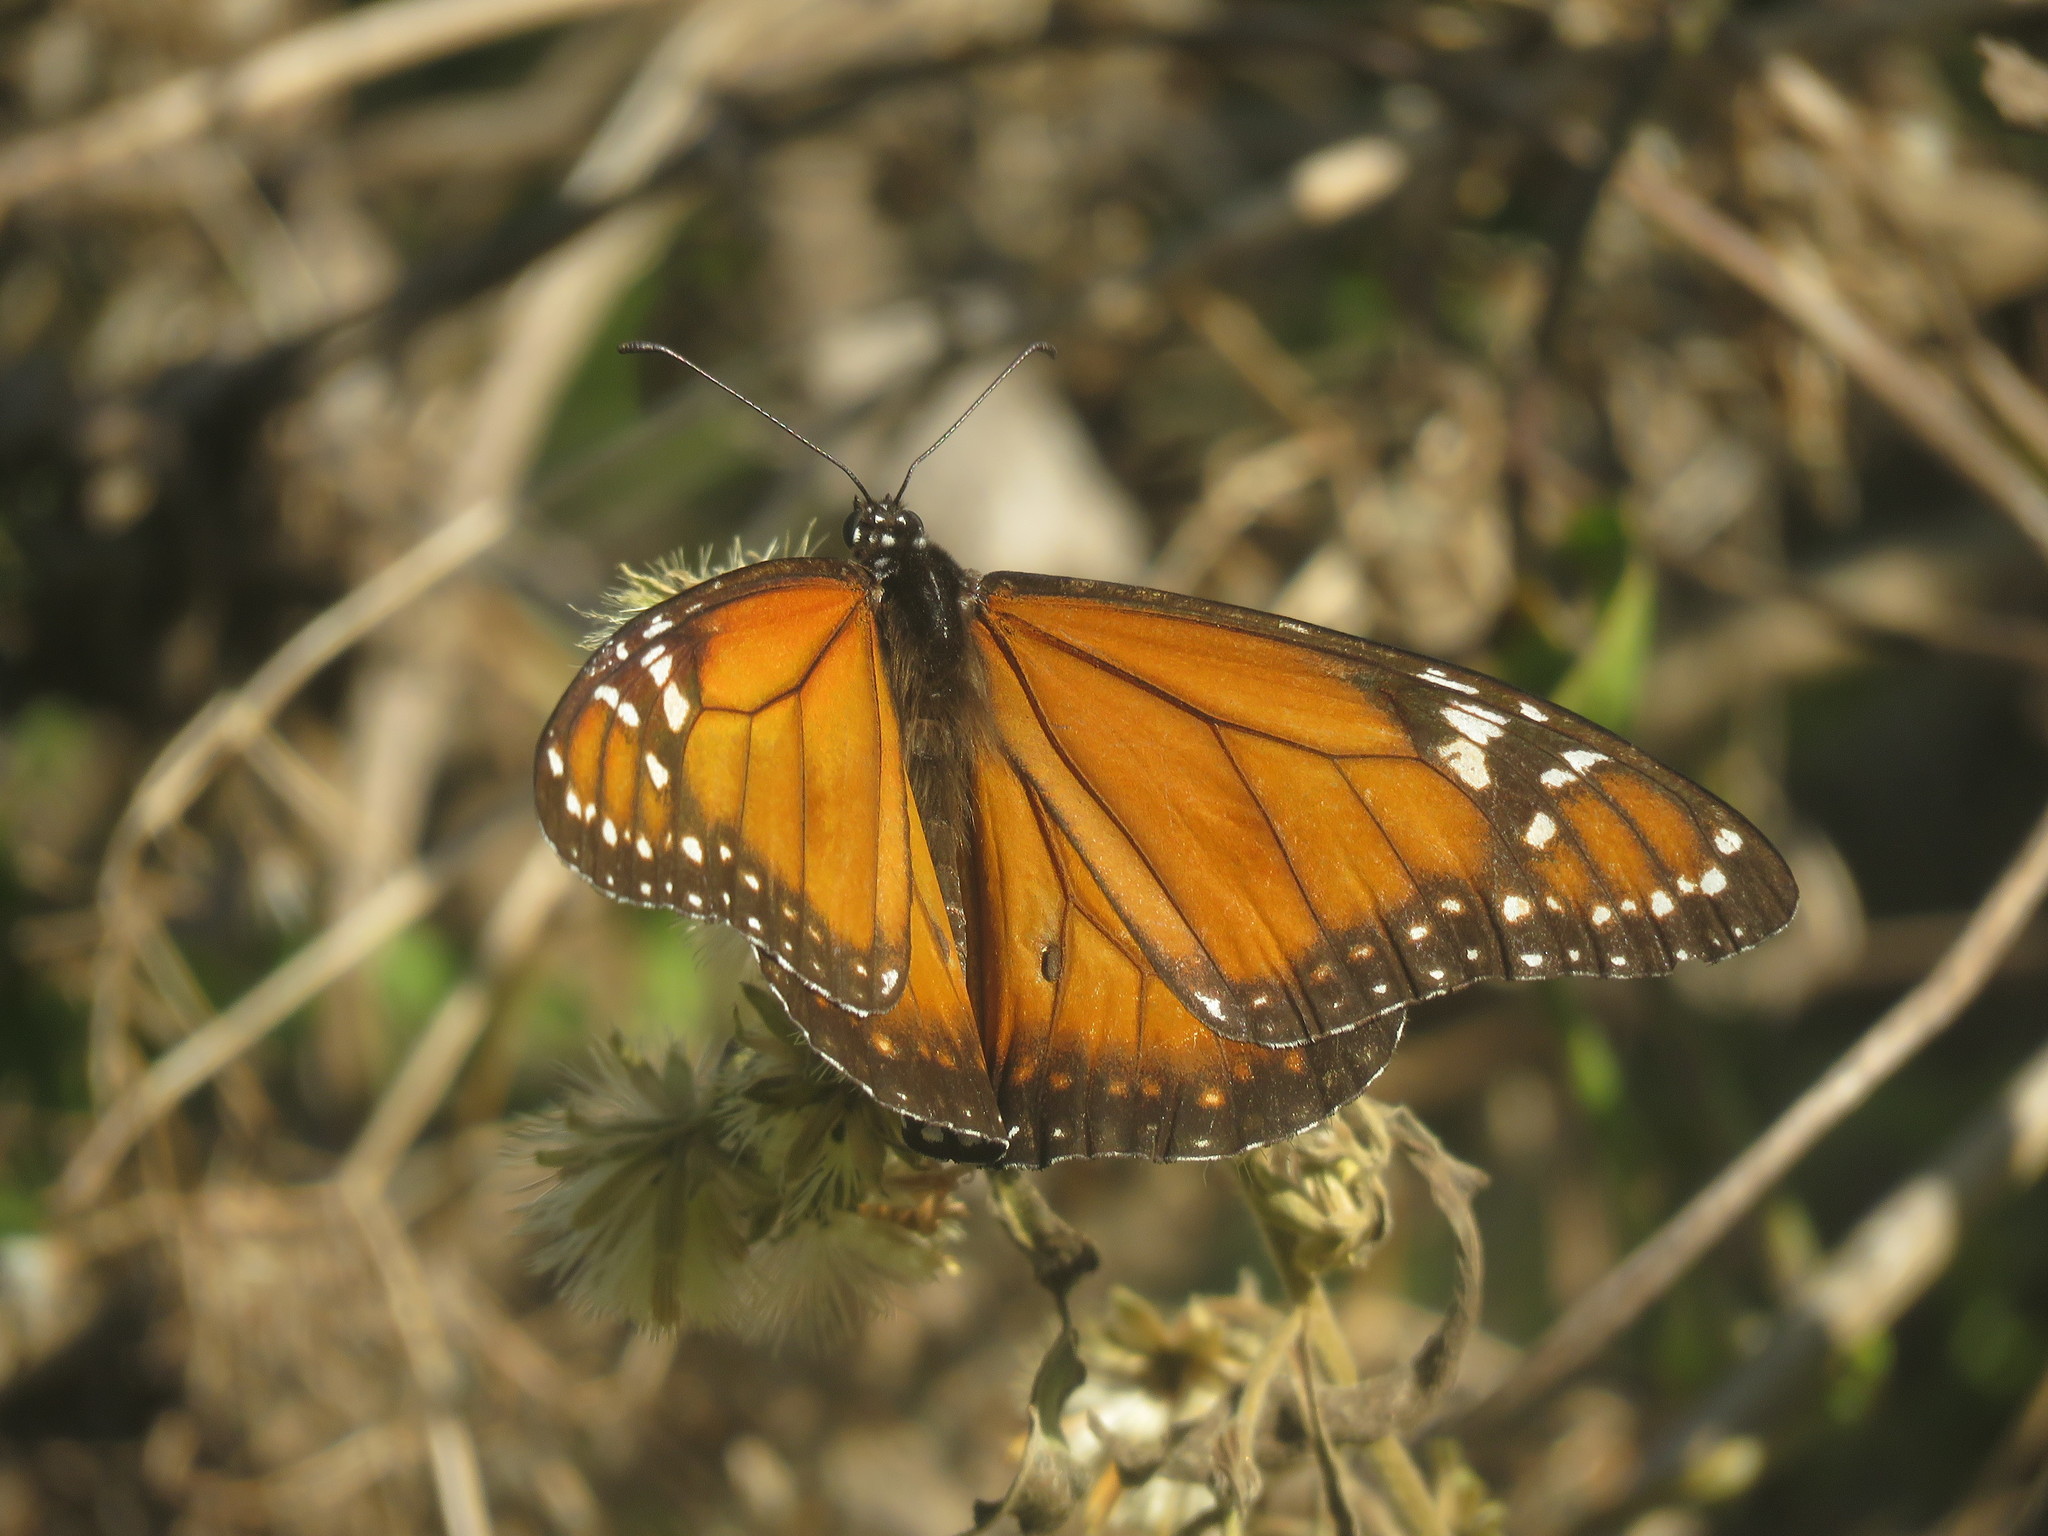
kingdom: Animalia
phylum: Arthropoda
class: Insecta
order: Lepidoptera
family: Nymphalidae
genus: Danaus
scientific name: Danaus erippus
